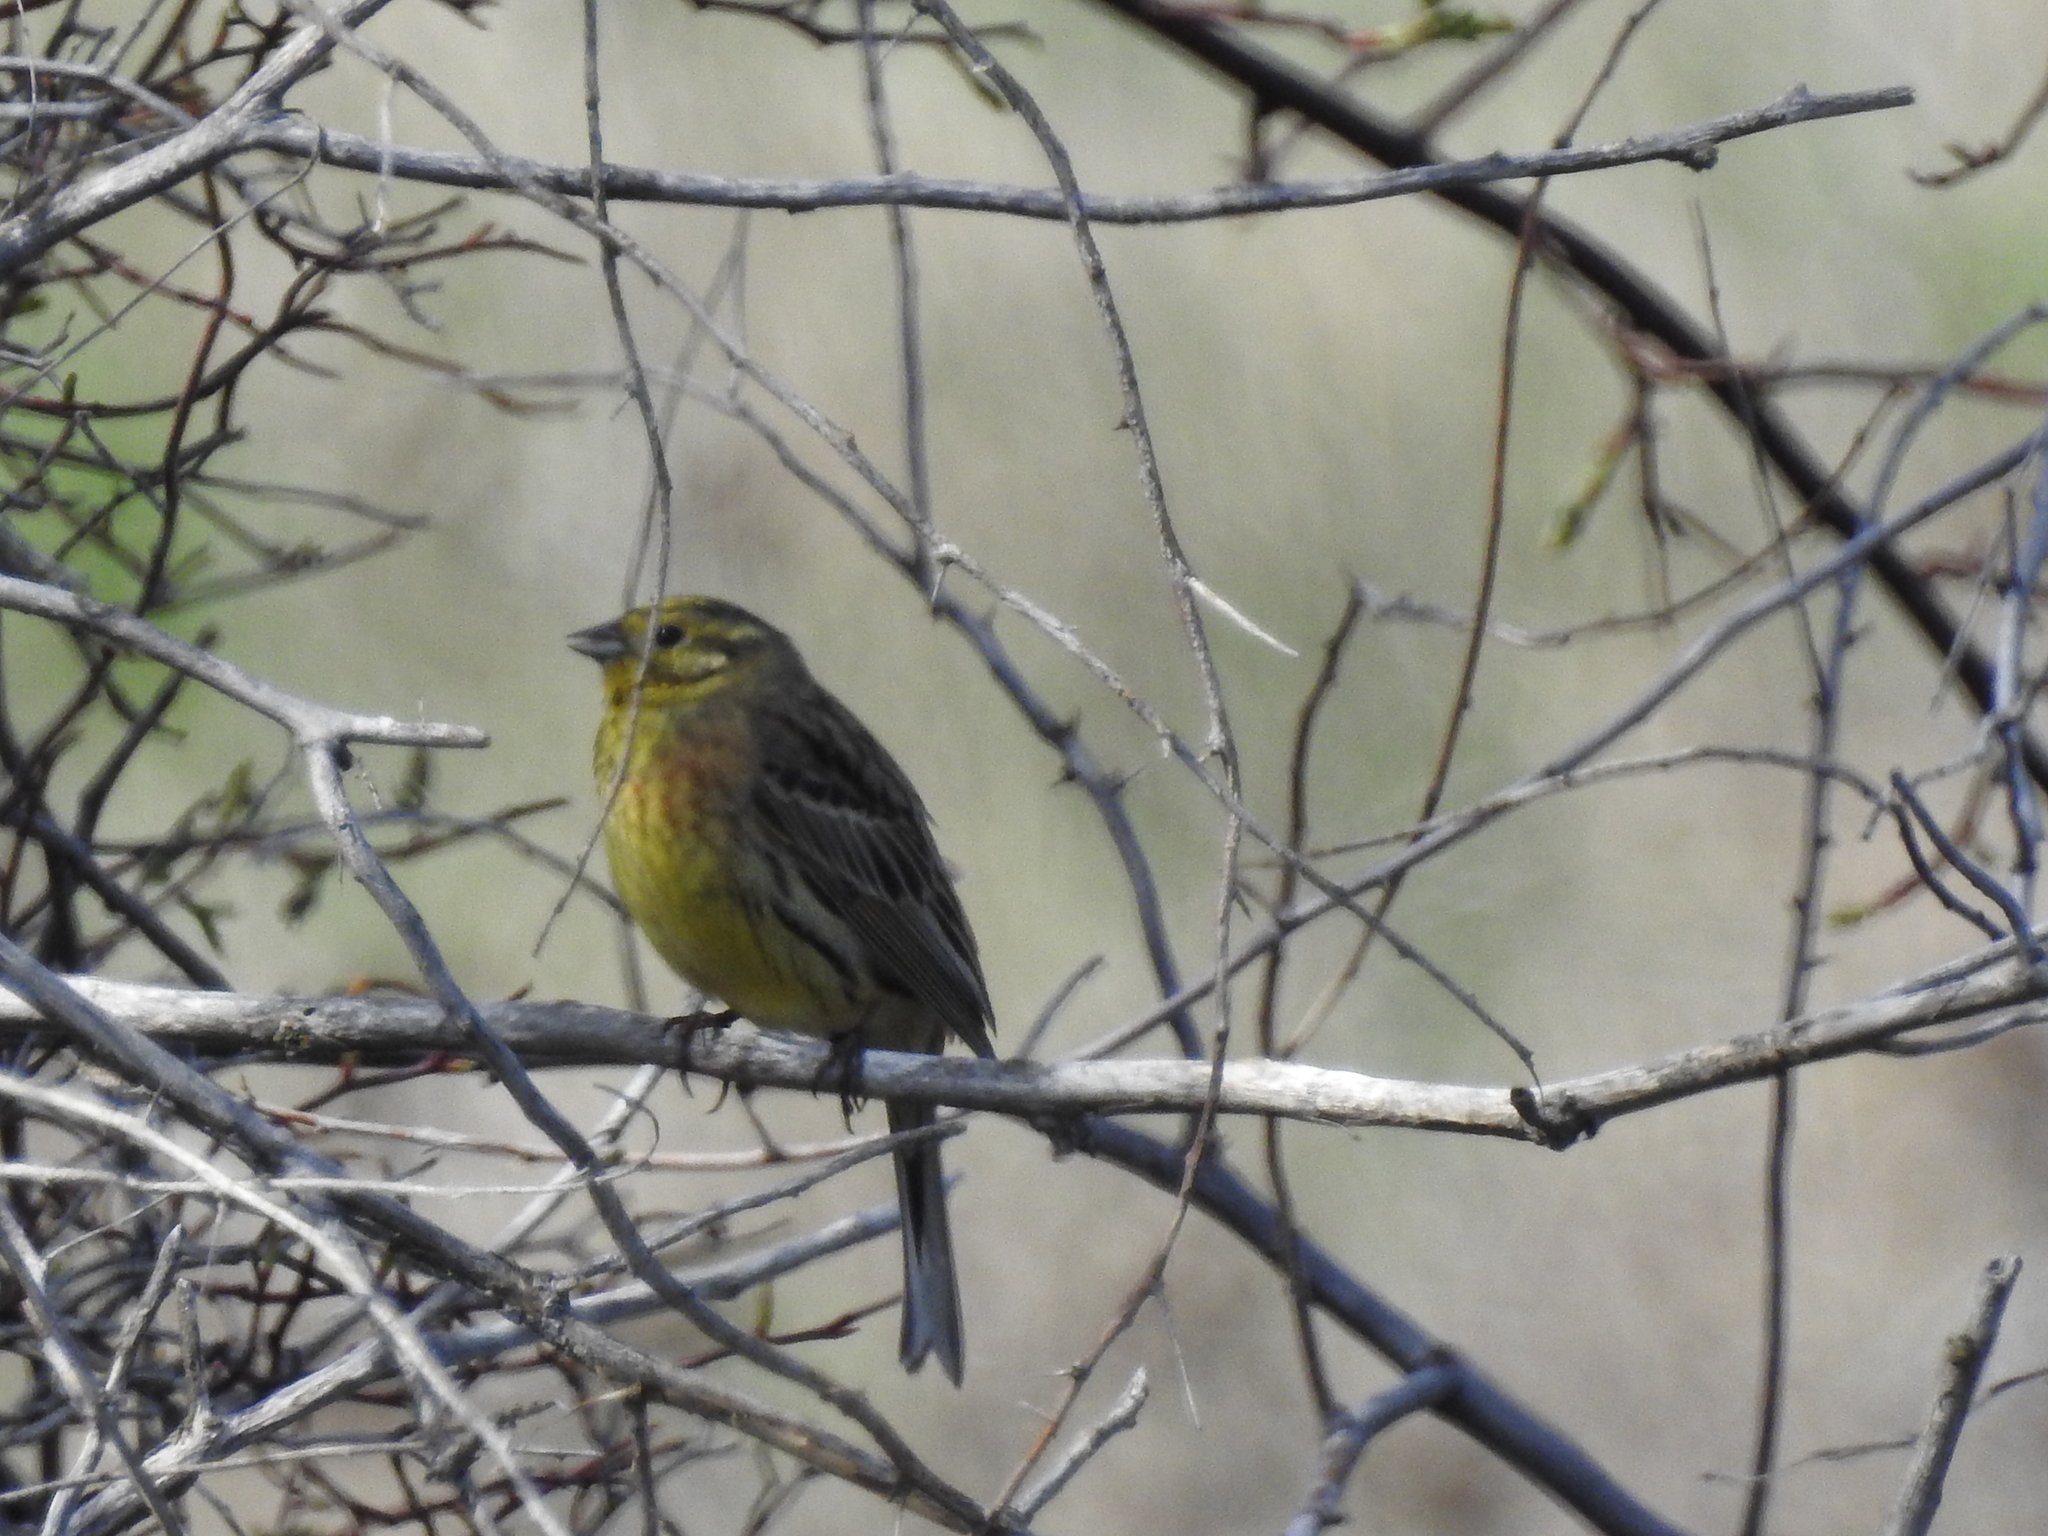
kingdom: Animalia
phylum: Chordata
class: Aves
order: Passeriformes
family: Emberizidae
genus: Emberiza
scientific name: Emberiza citrinella
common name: Yellowhammer
